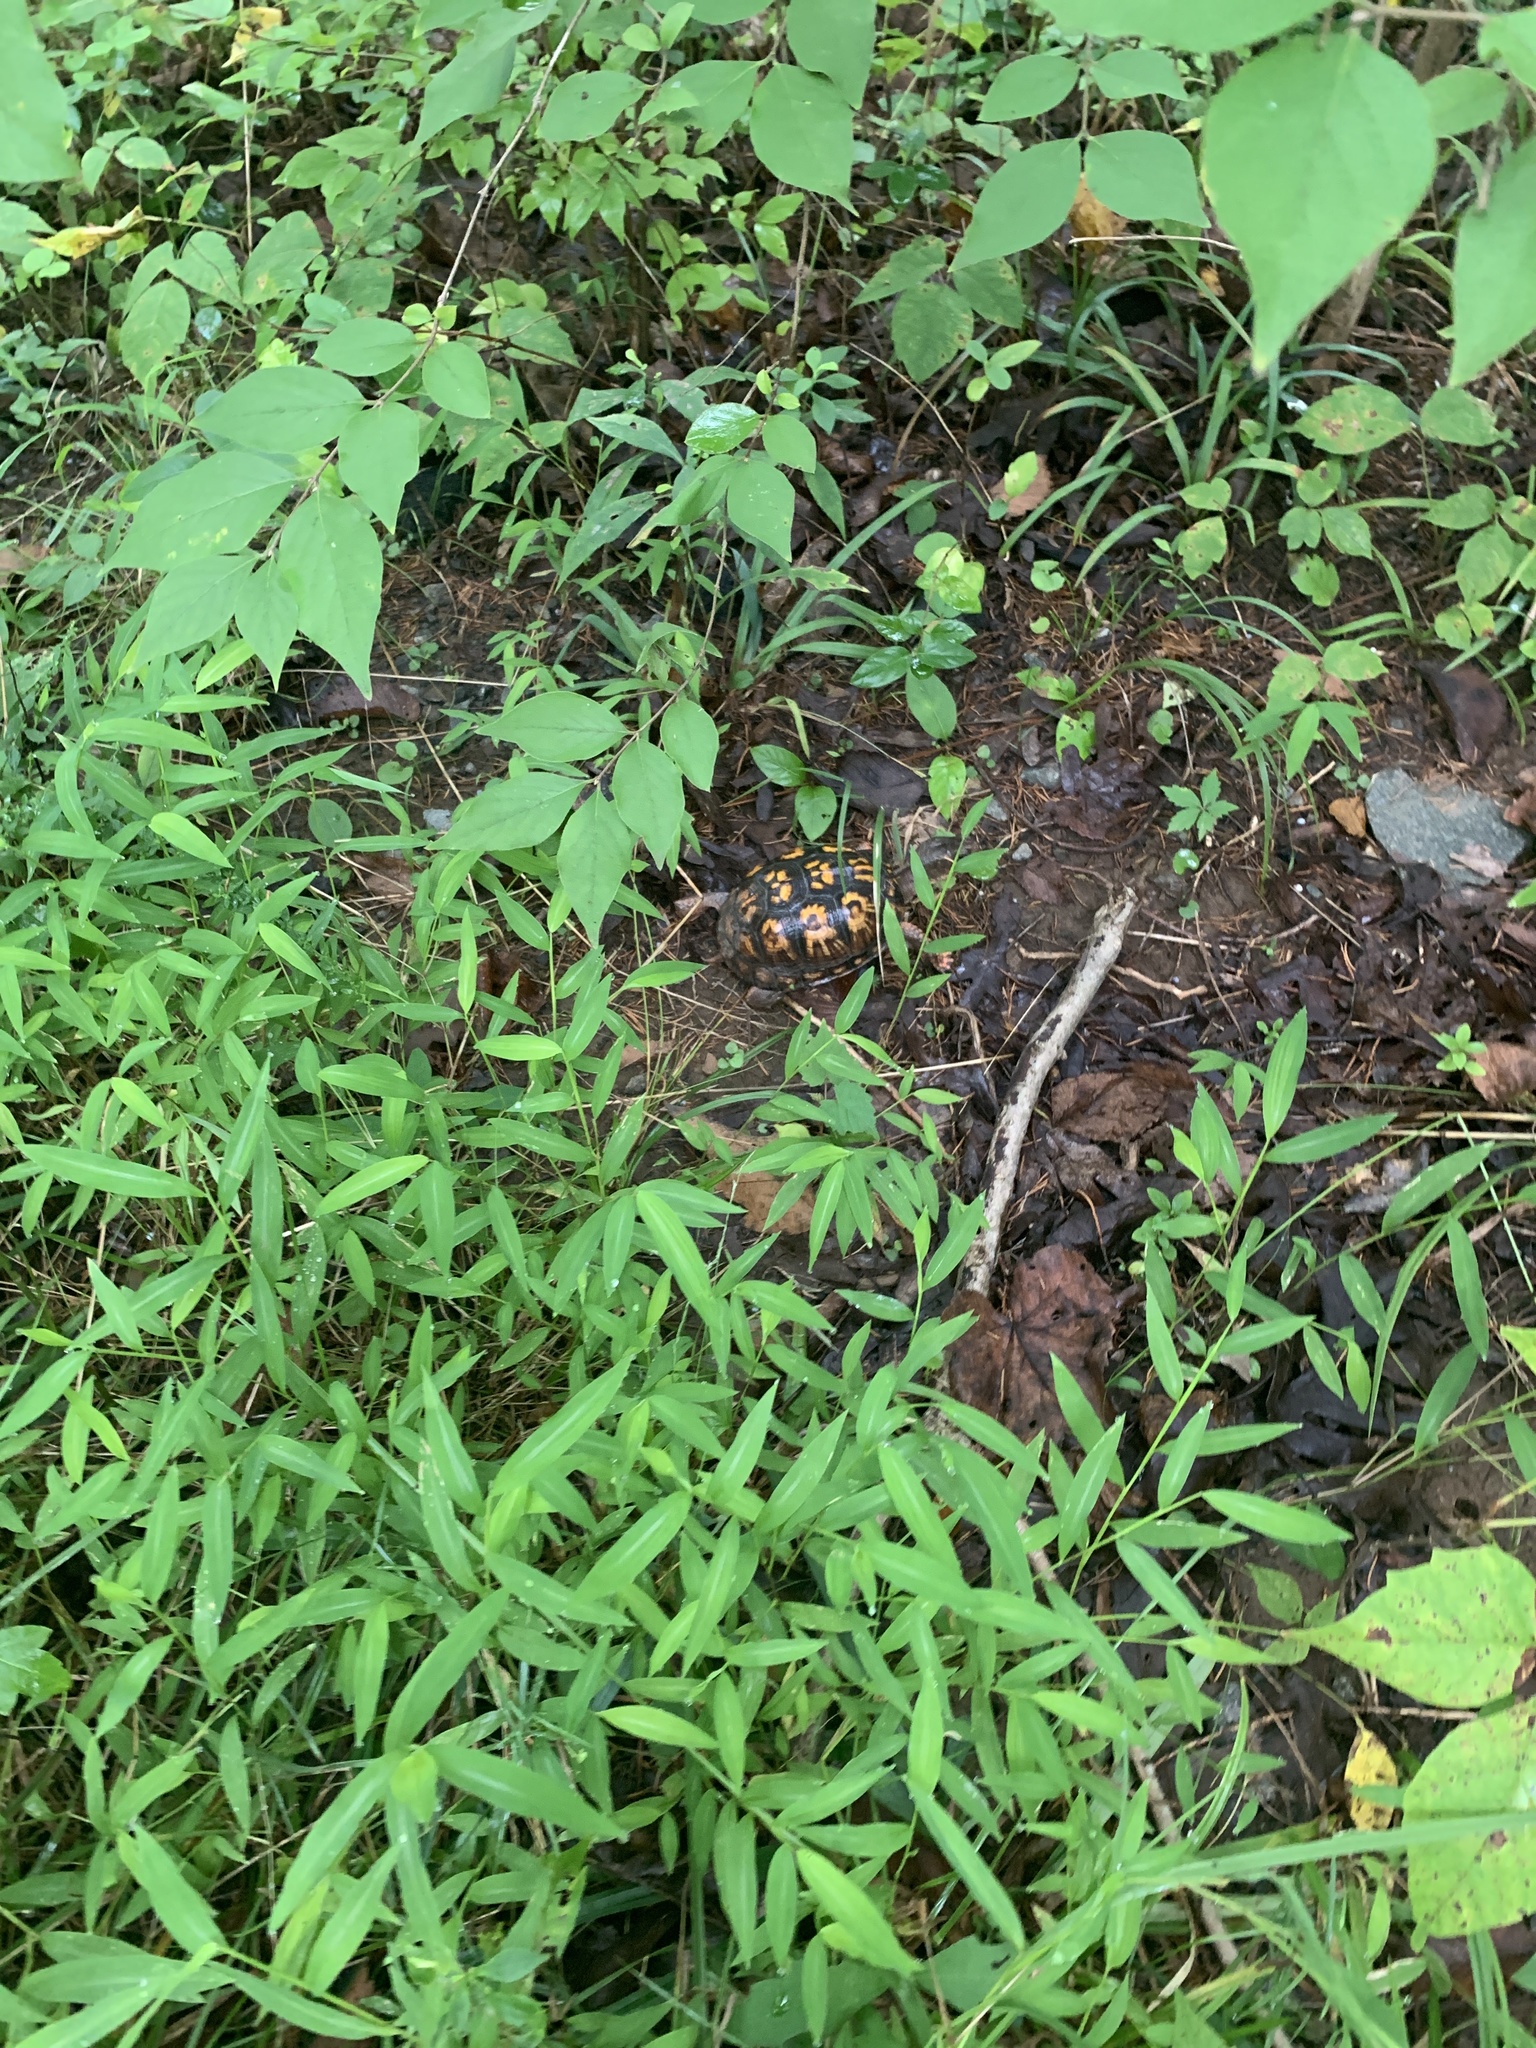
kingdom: Animalia
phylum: Chordata
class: Testudines
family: Emydidae
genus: Terrapene
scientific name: Terrapene carolina
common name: Common box turtle
